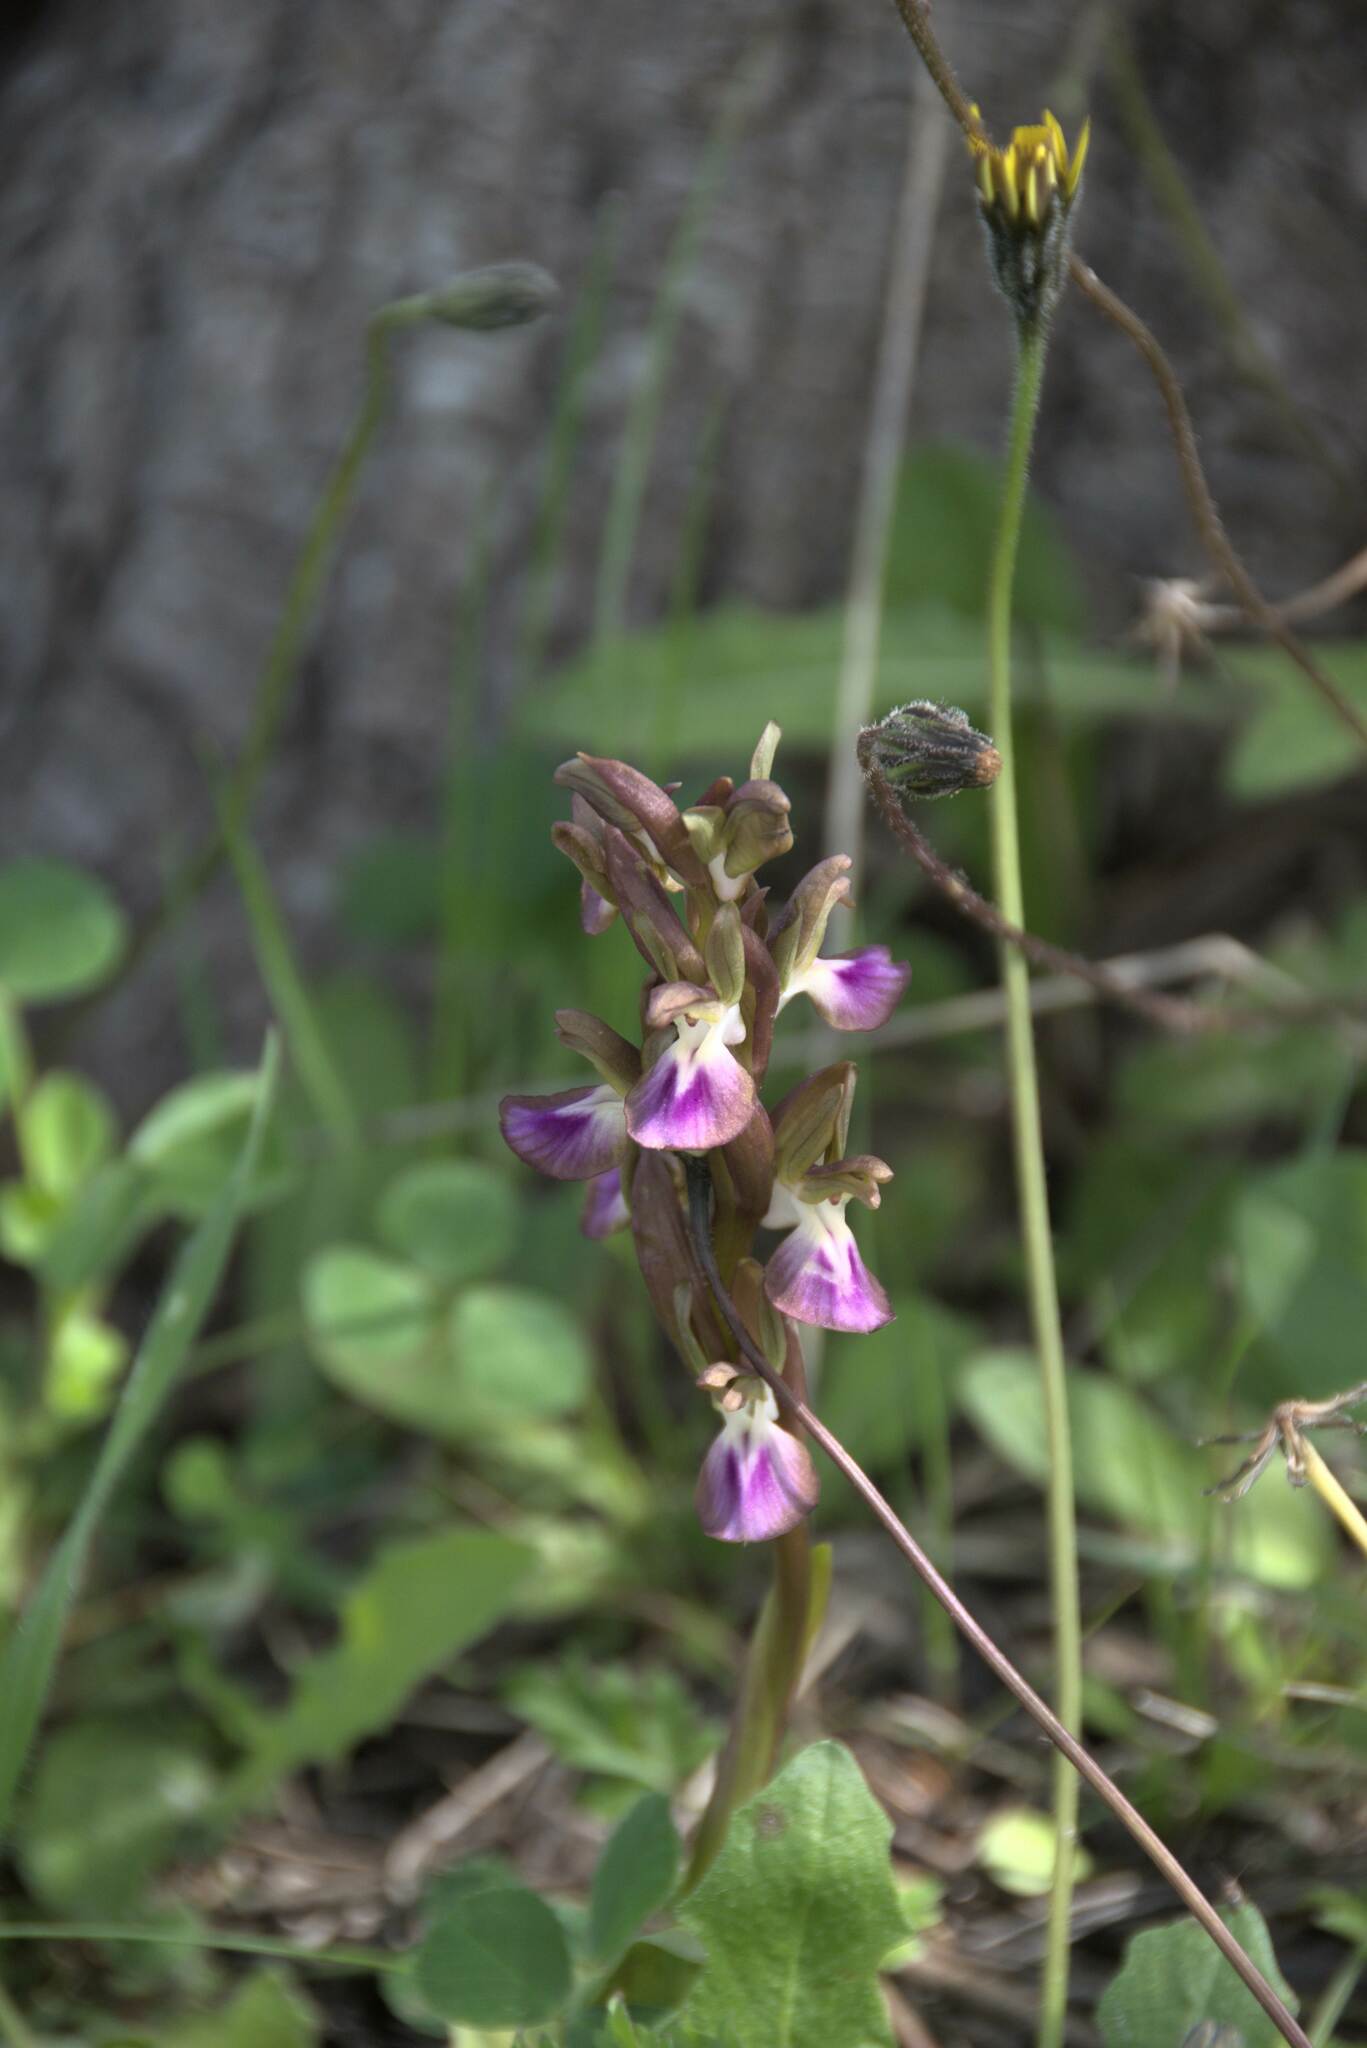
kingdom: Plantae
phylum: Tracheophyta
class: Liliopsida
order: Asparagales
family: Orchidaceae
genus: Anacamptis
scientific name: Anacamptis collina
